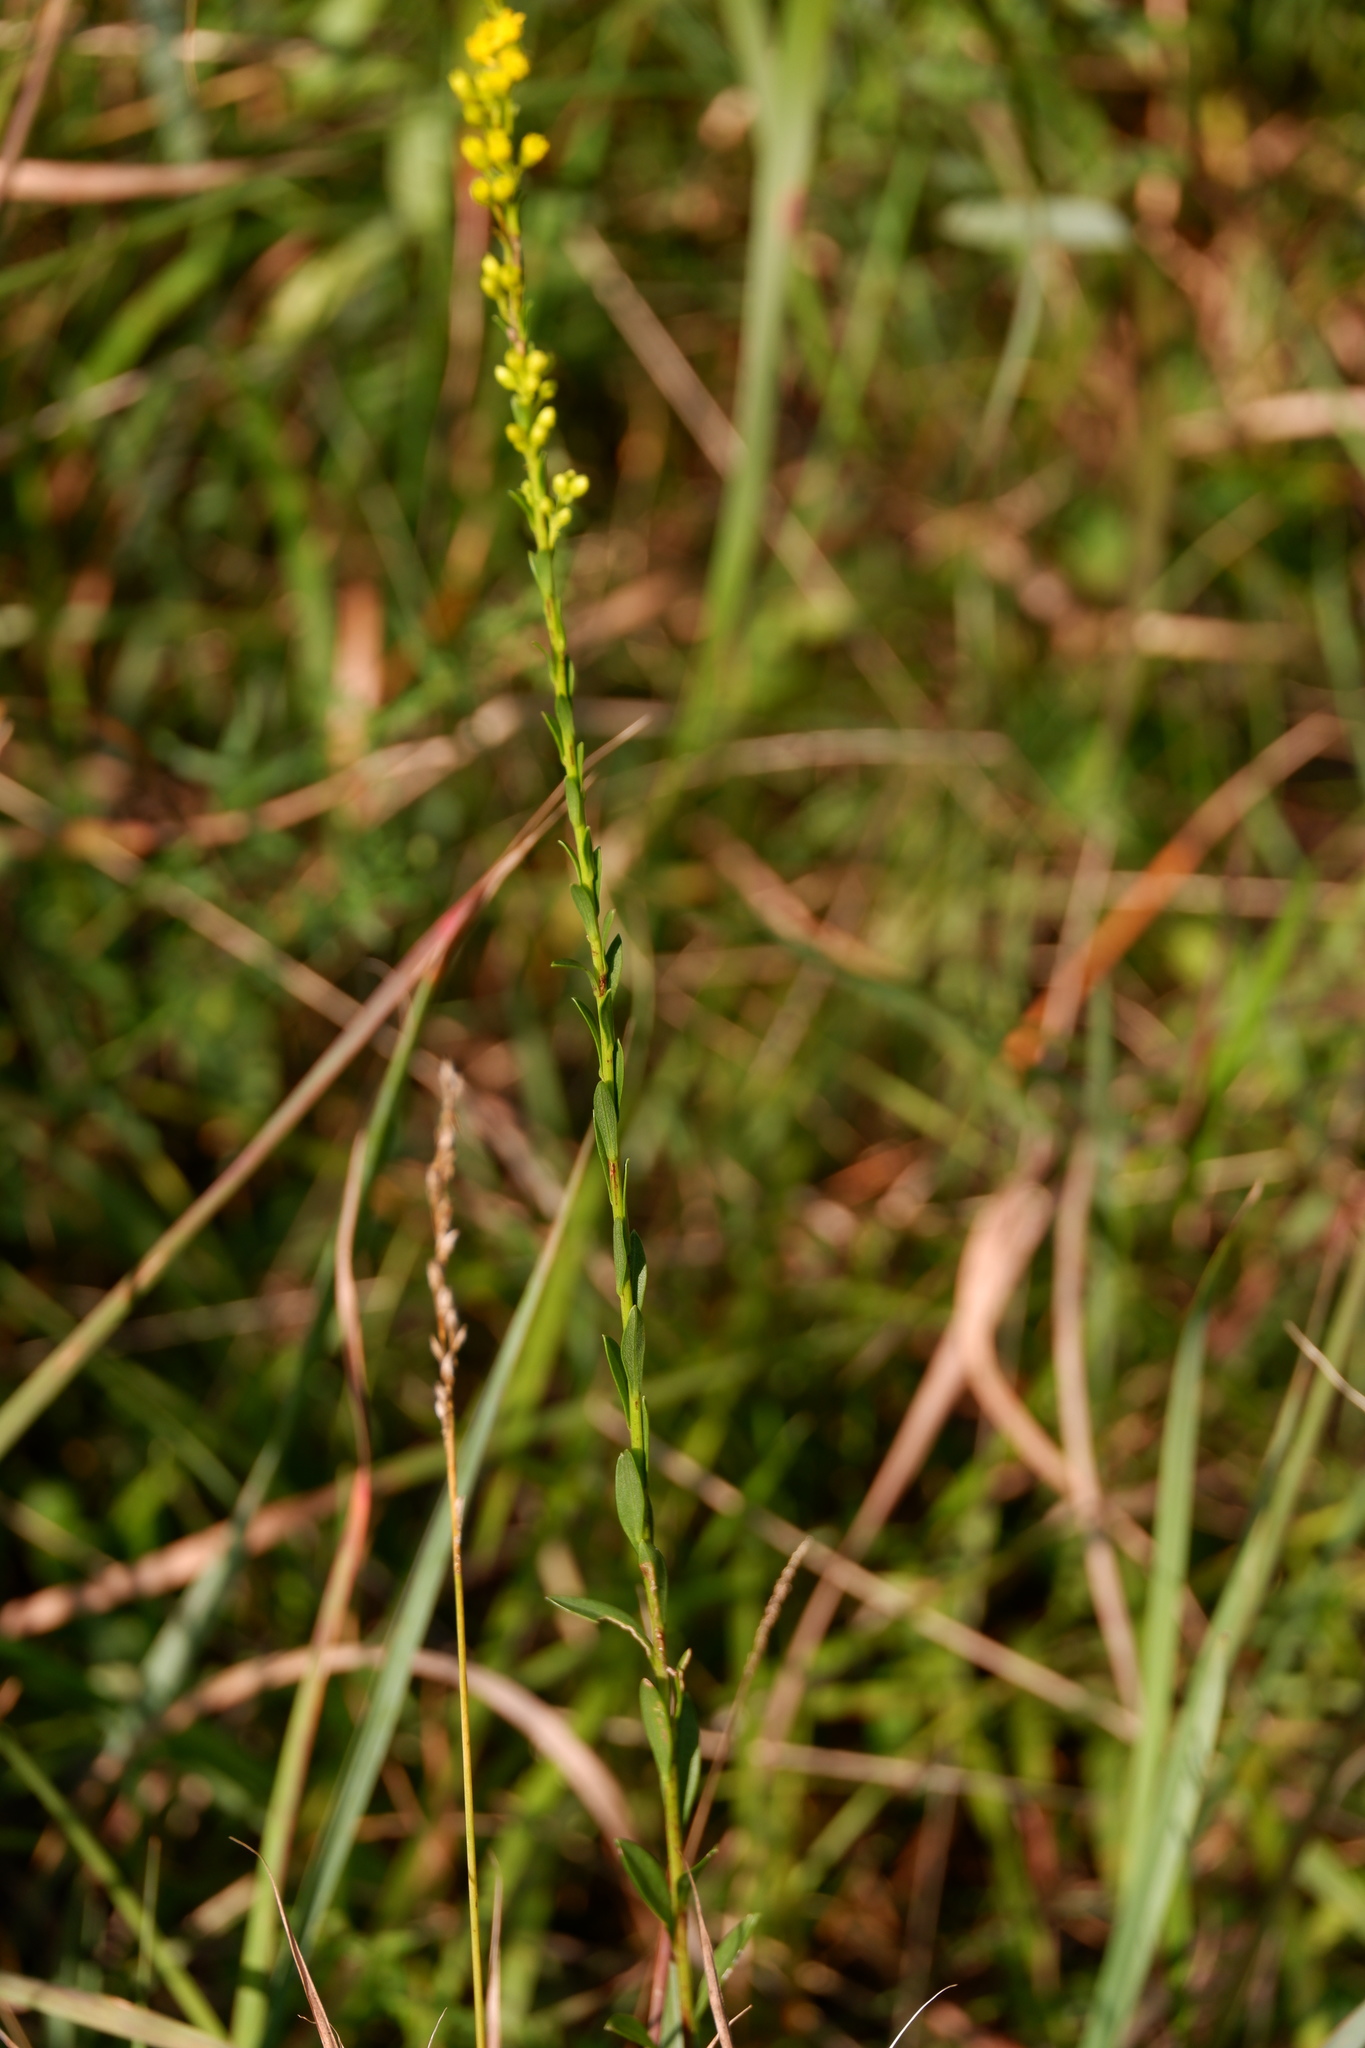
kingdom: Plantae
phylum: Tracheophyta
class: Magnoliopsida
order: Asterales
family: Asteraceae
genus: Solidago
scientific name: Solidago stricta
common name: Pine barren bog goldenrod
